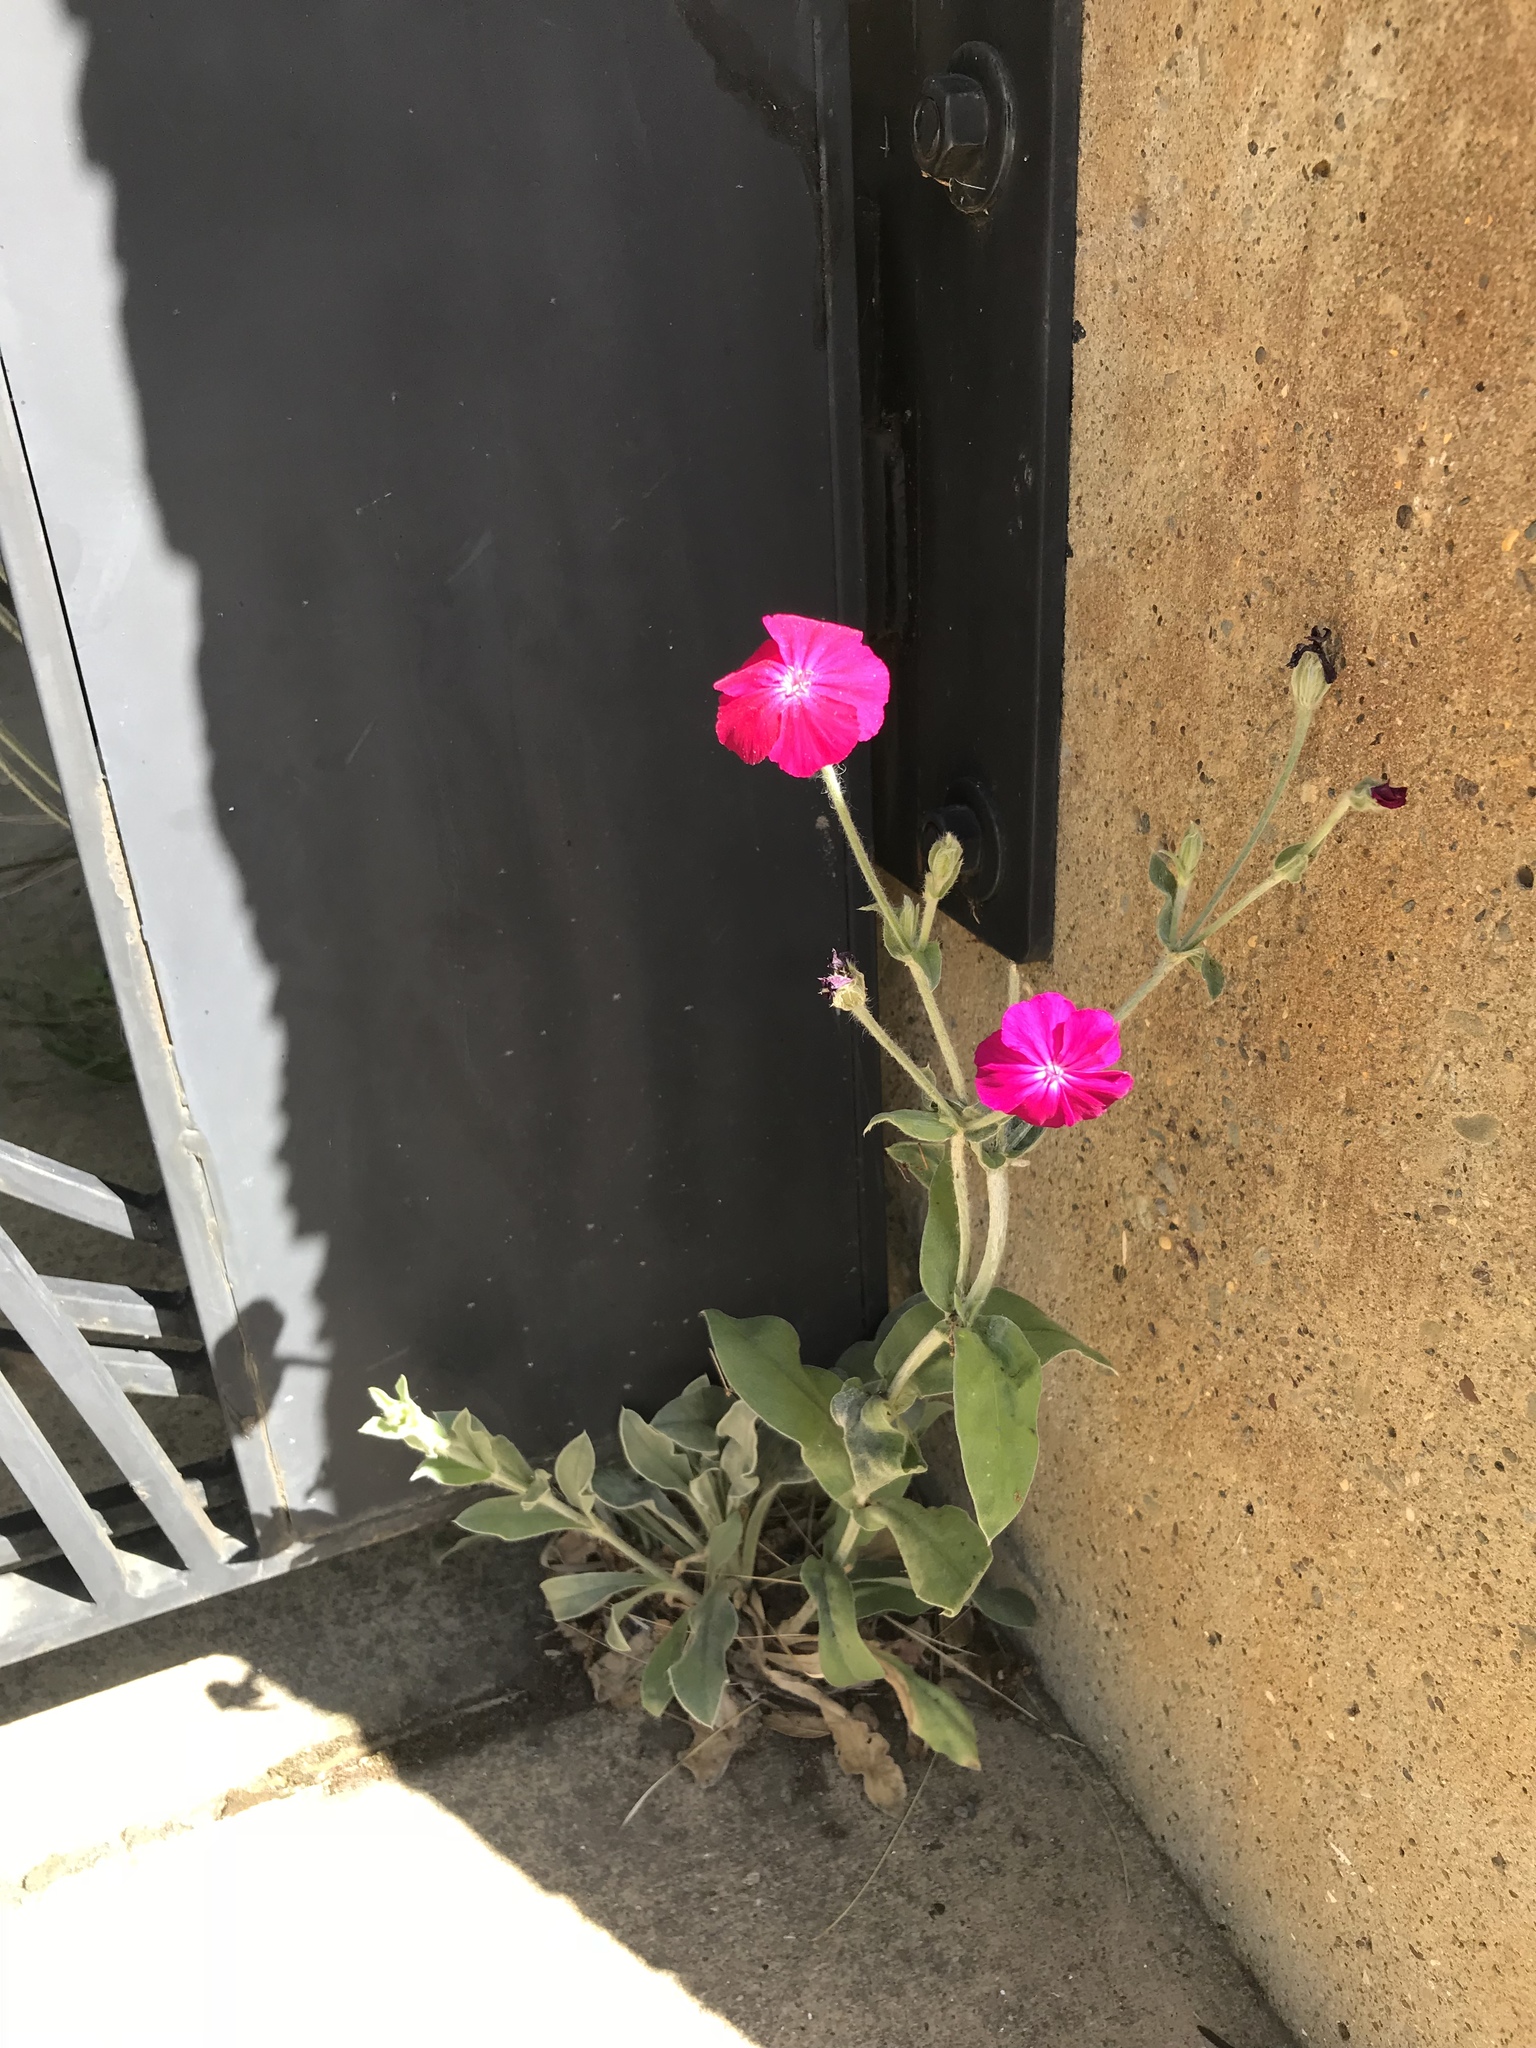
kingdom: Plantae
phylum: Tracheophyta
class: Magnoliopsida
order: Caryophyllales
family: Caryophyllaceae
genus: Silene
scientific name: Silene coronaria
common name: Rose campion
